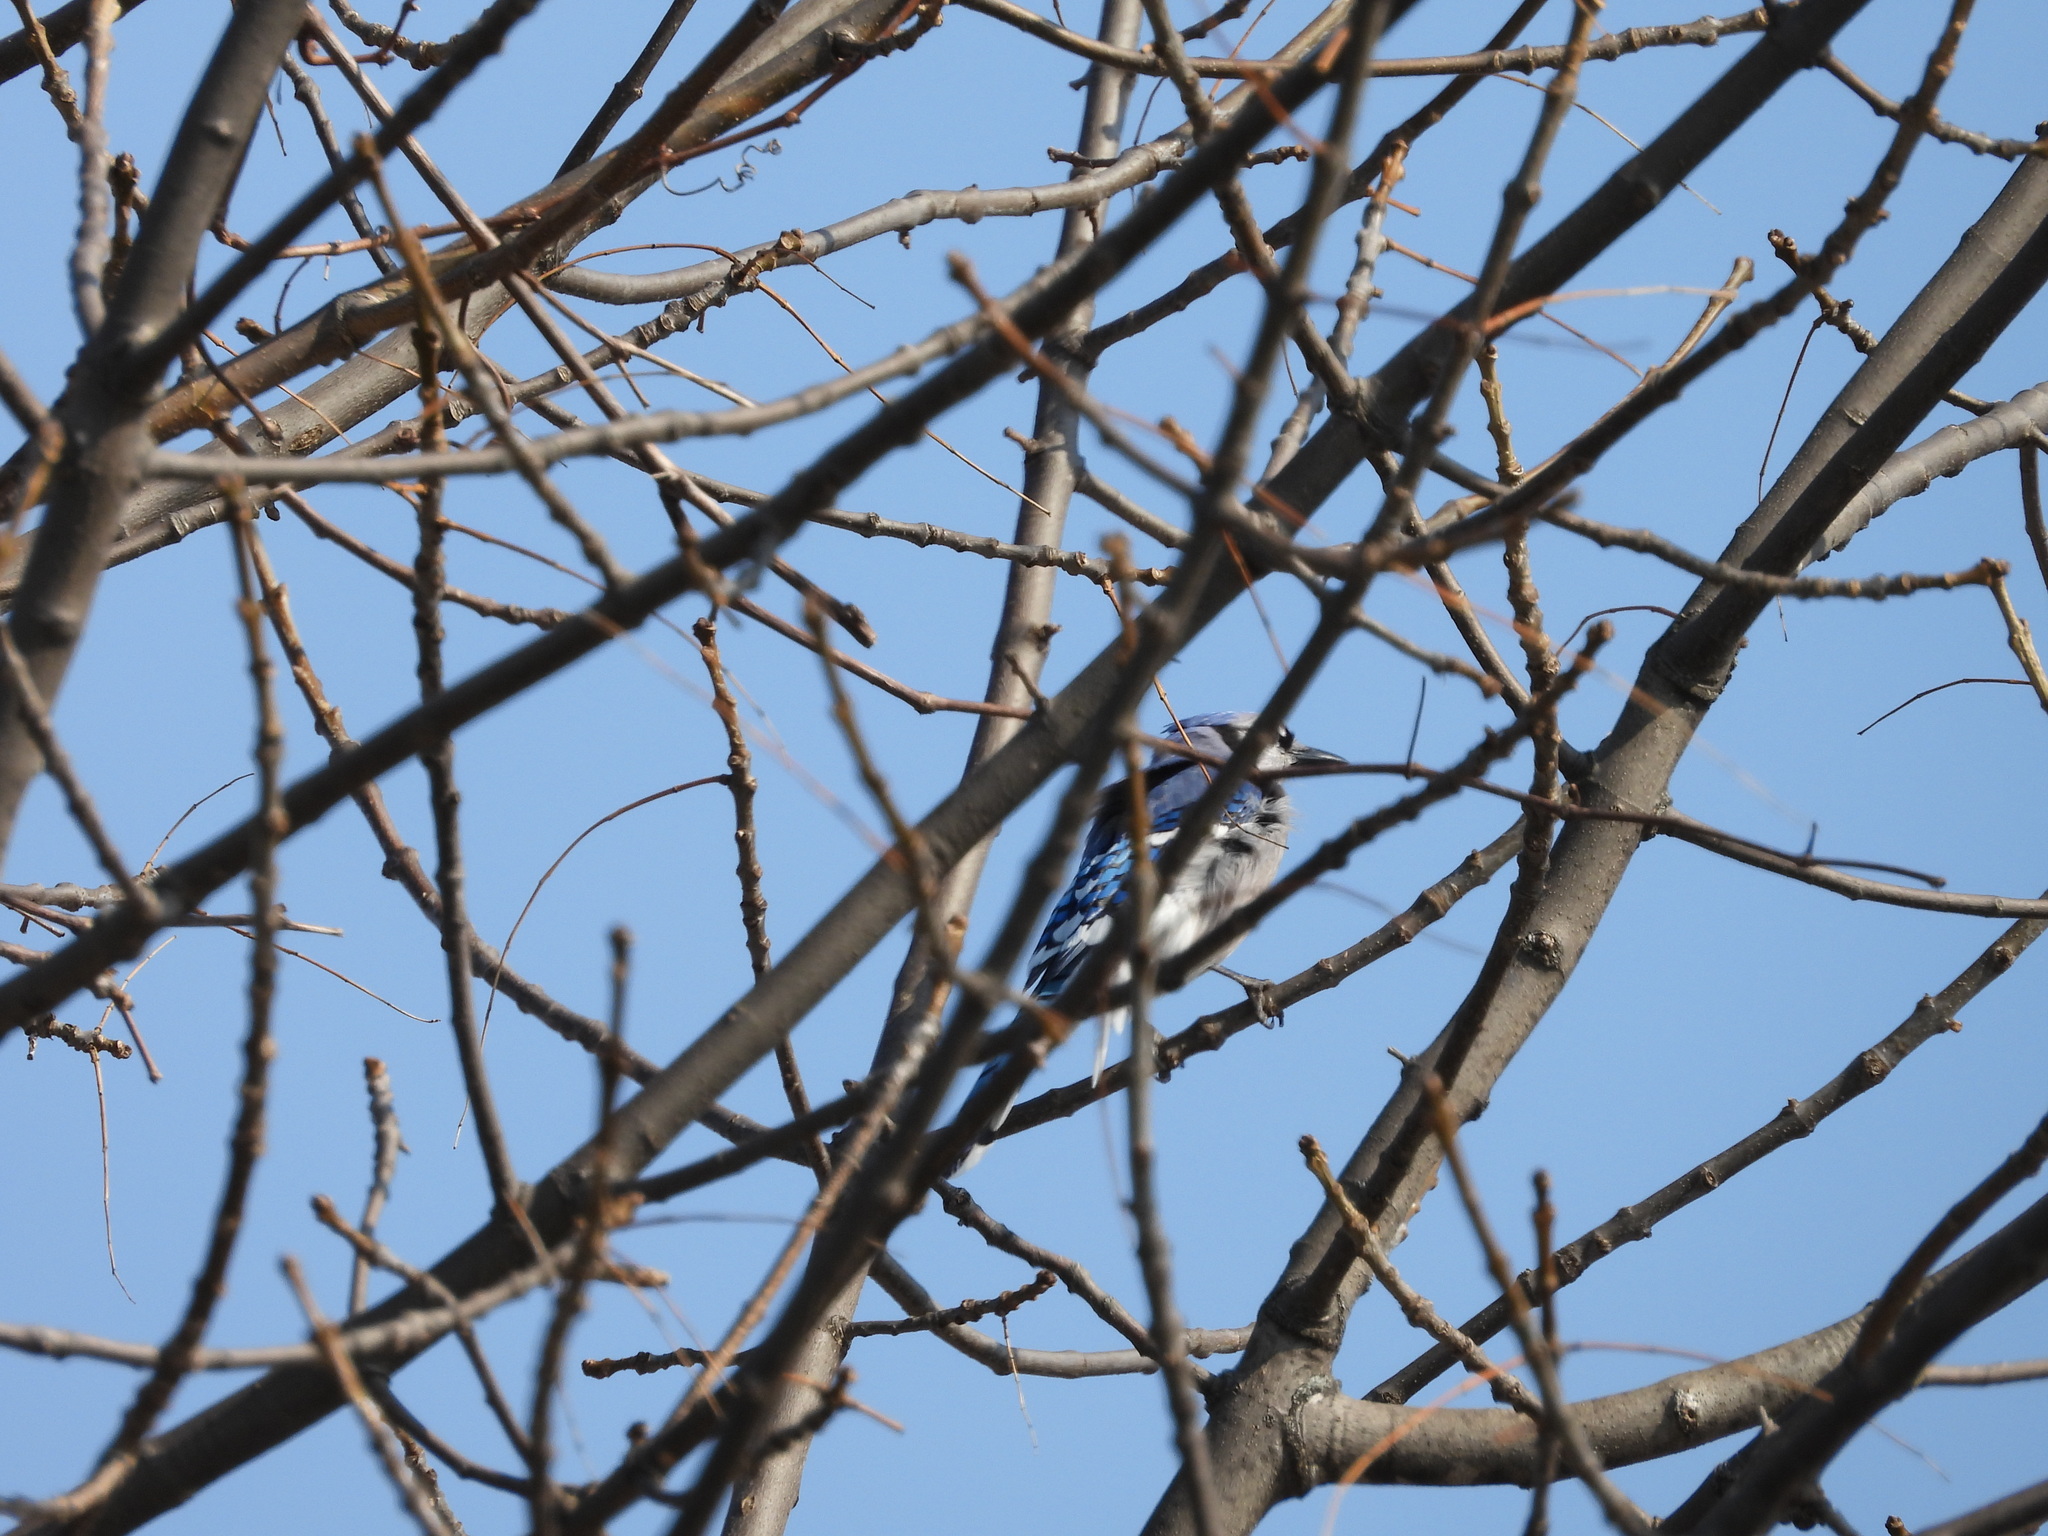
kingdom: Animalia
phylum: Chordata
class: Aves
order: Passeriformes
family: Corvidae
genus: Cyanocitta
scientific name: Cyanocitta cristata
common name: Blue jay
